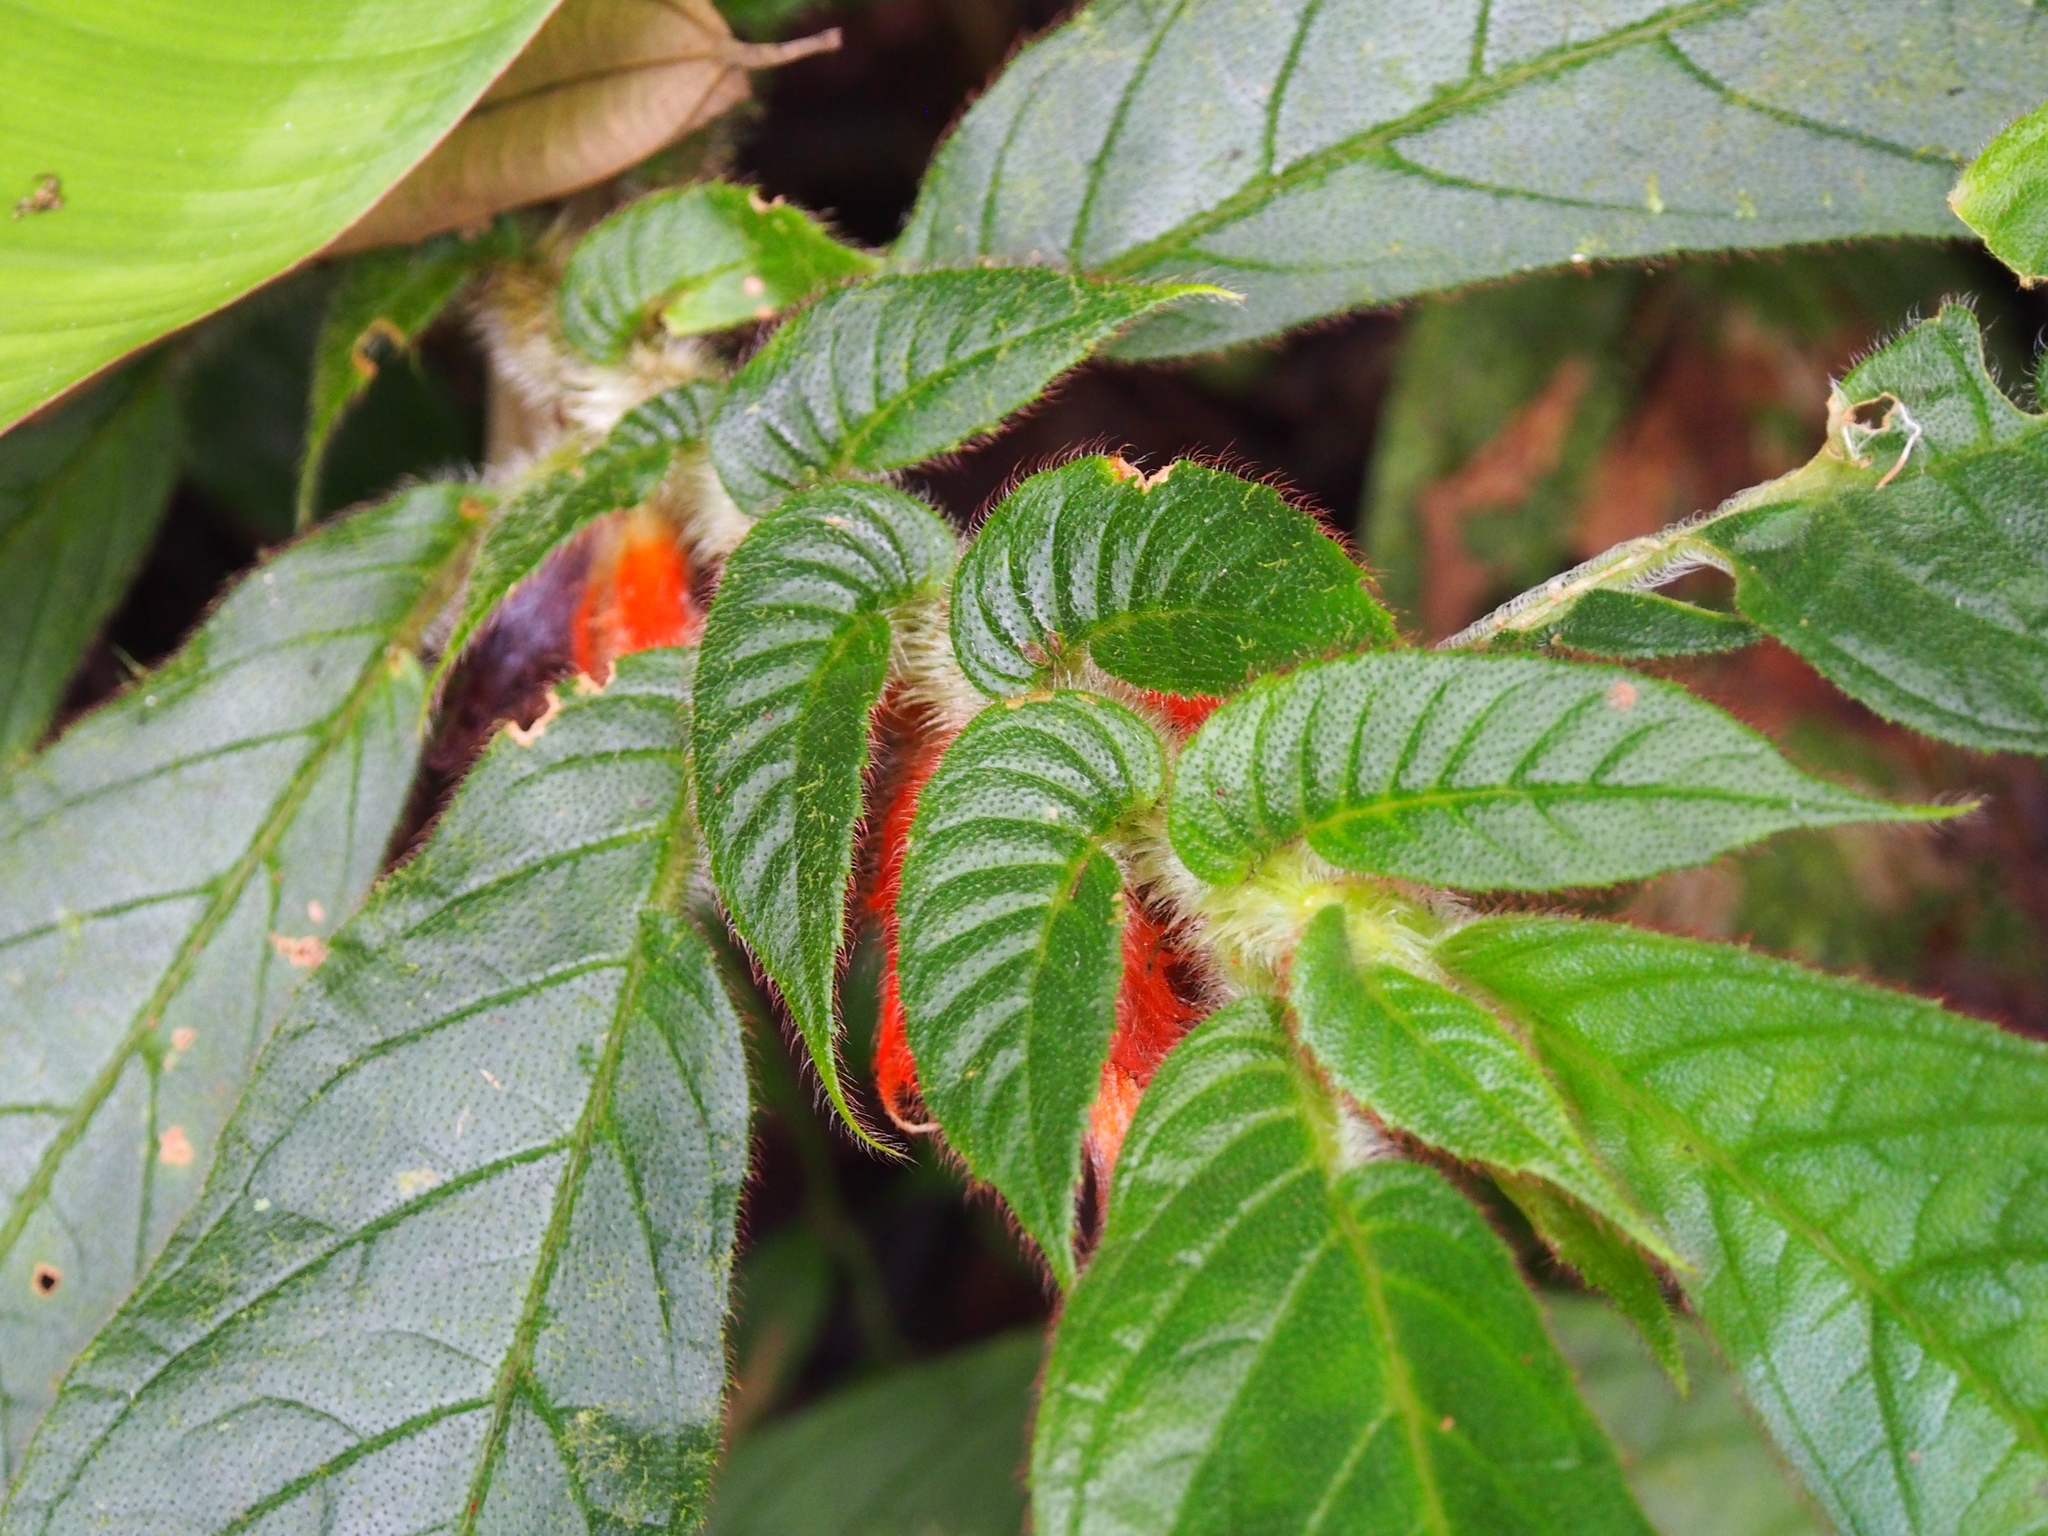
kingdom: Plantae
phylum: Tracheophyta
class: Magnoliopsida
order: Lamiales
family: Gesneriaceae
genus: Columnea
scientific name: Columnea purpurata
